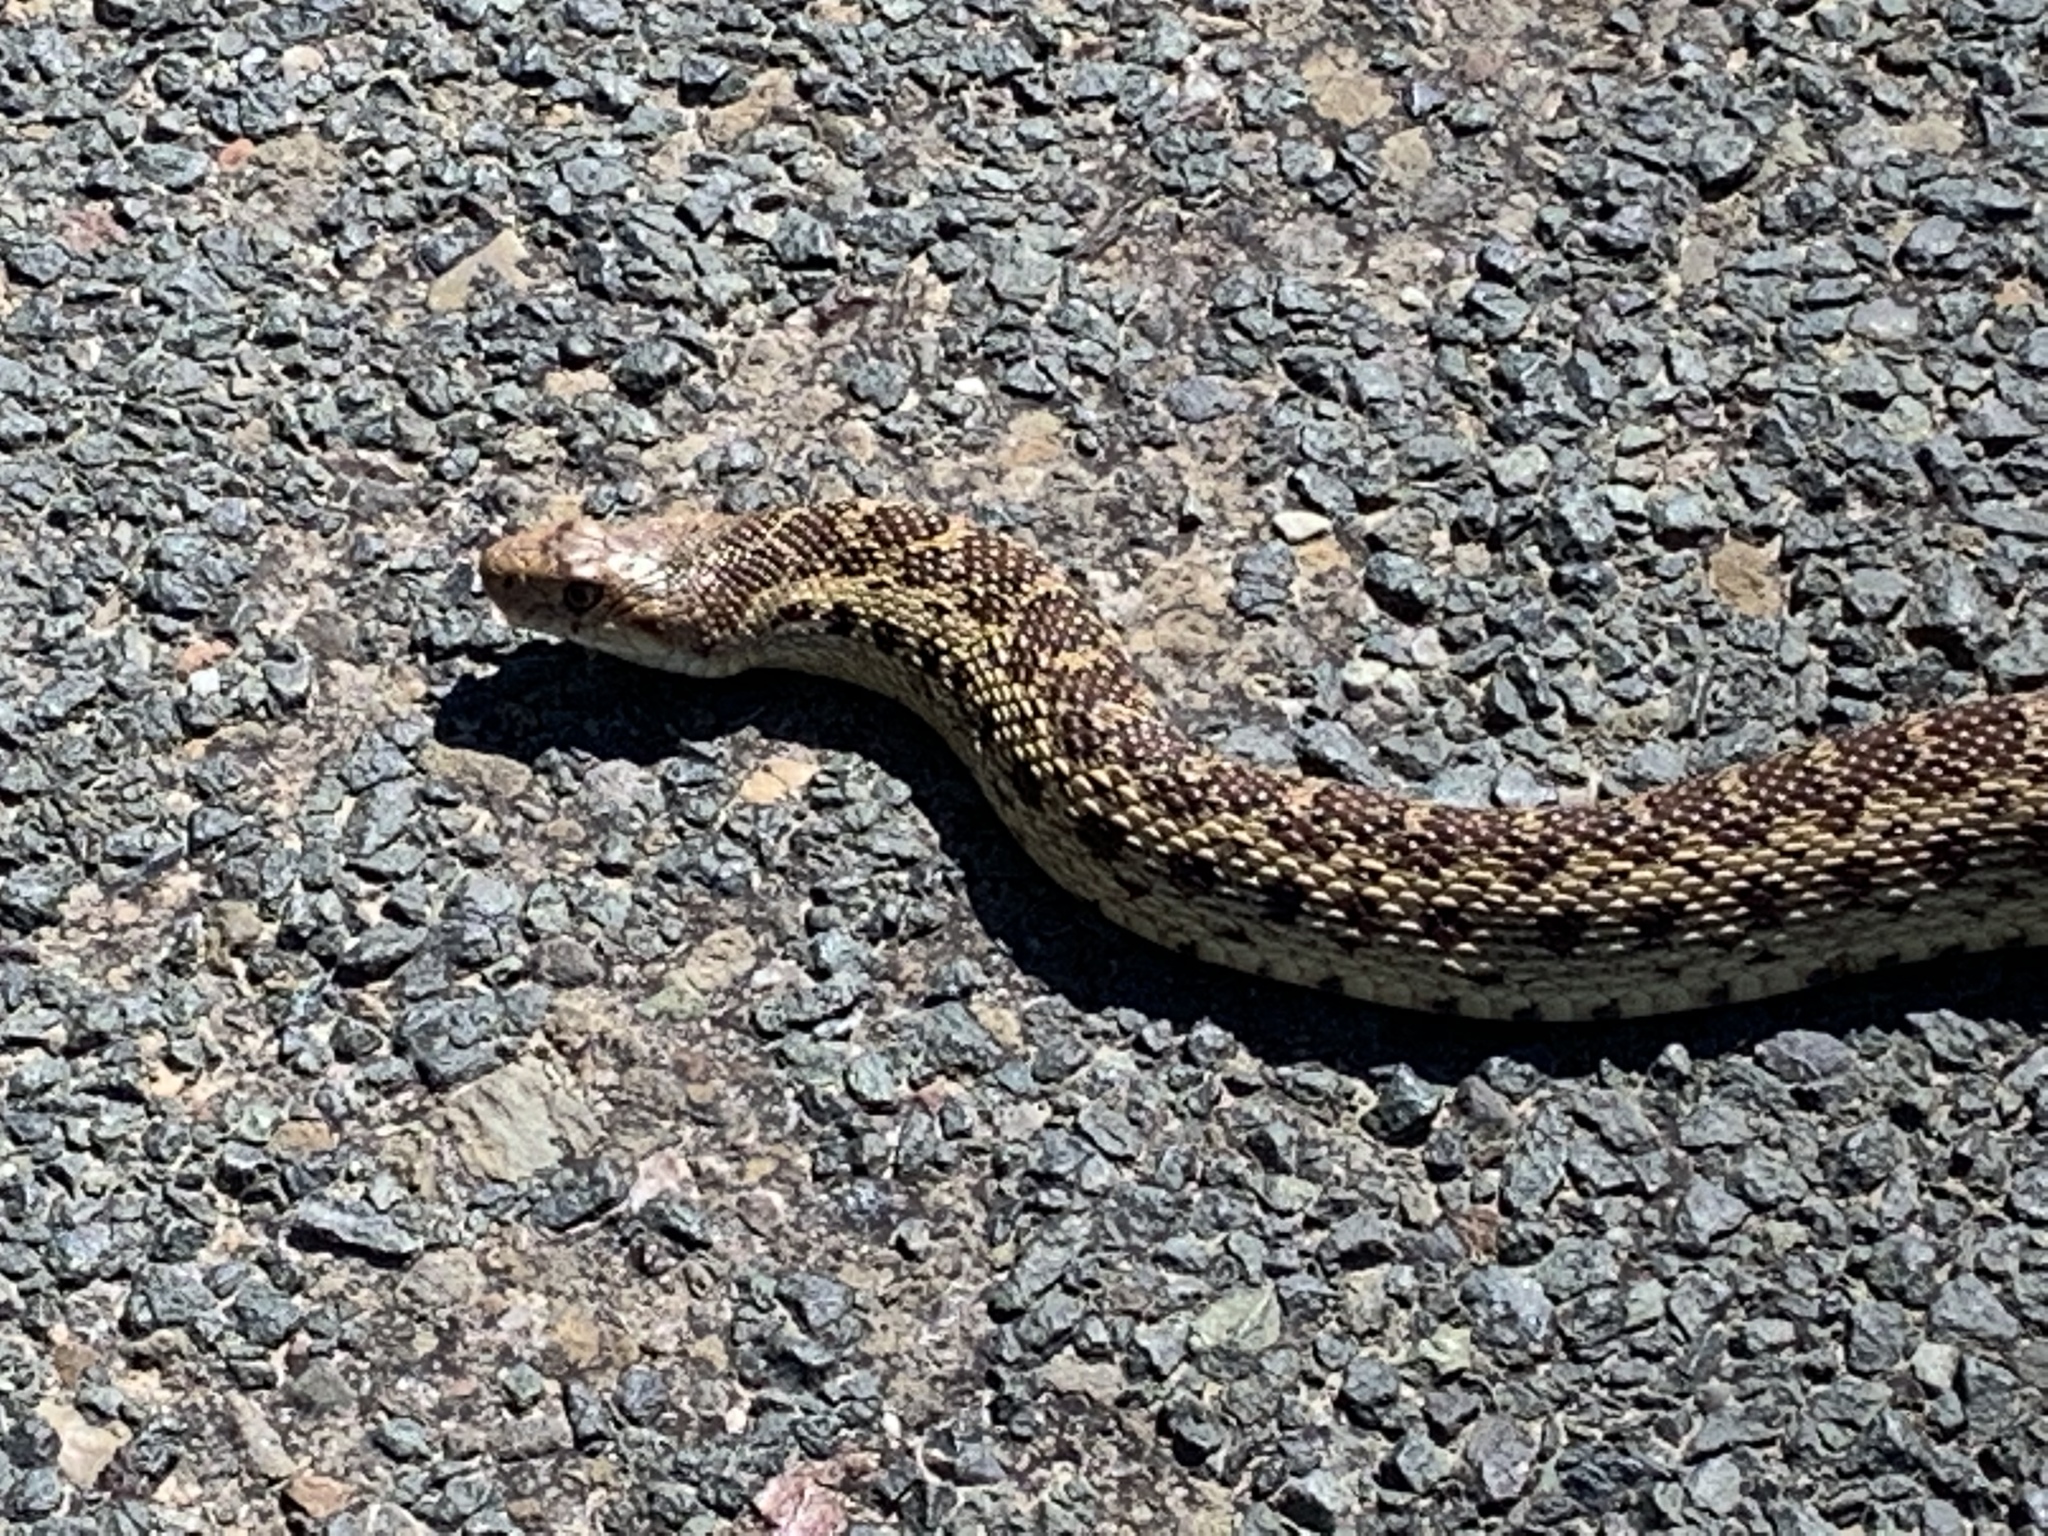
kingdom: Animalia
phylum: Chordata
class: Squamata
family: Colubridae
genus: Pituophis
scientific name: Pituophis catenifer
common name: Gopher snake
